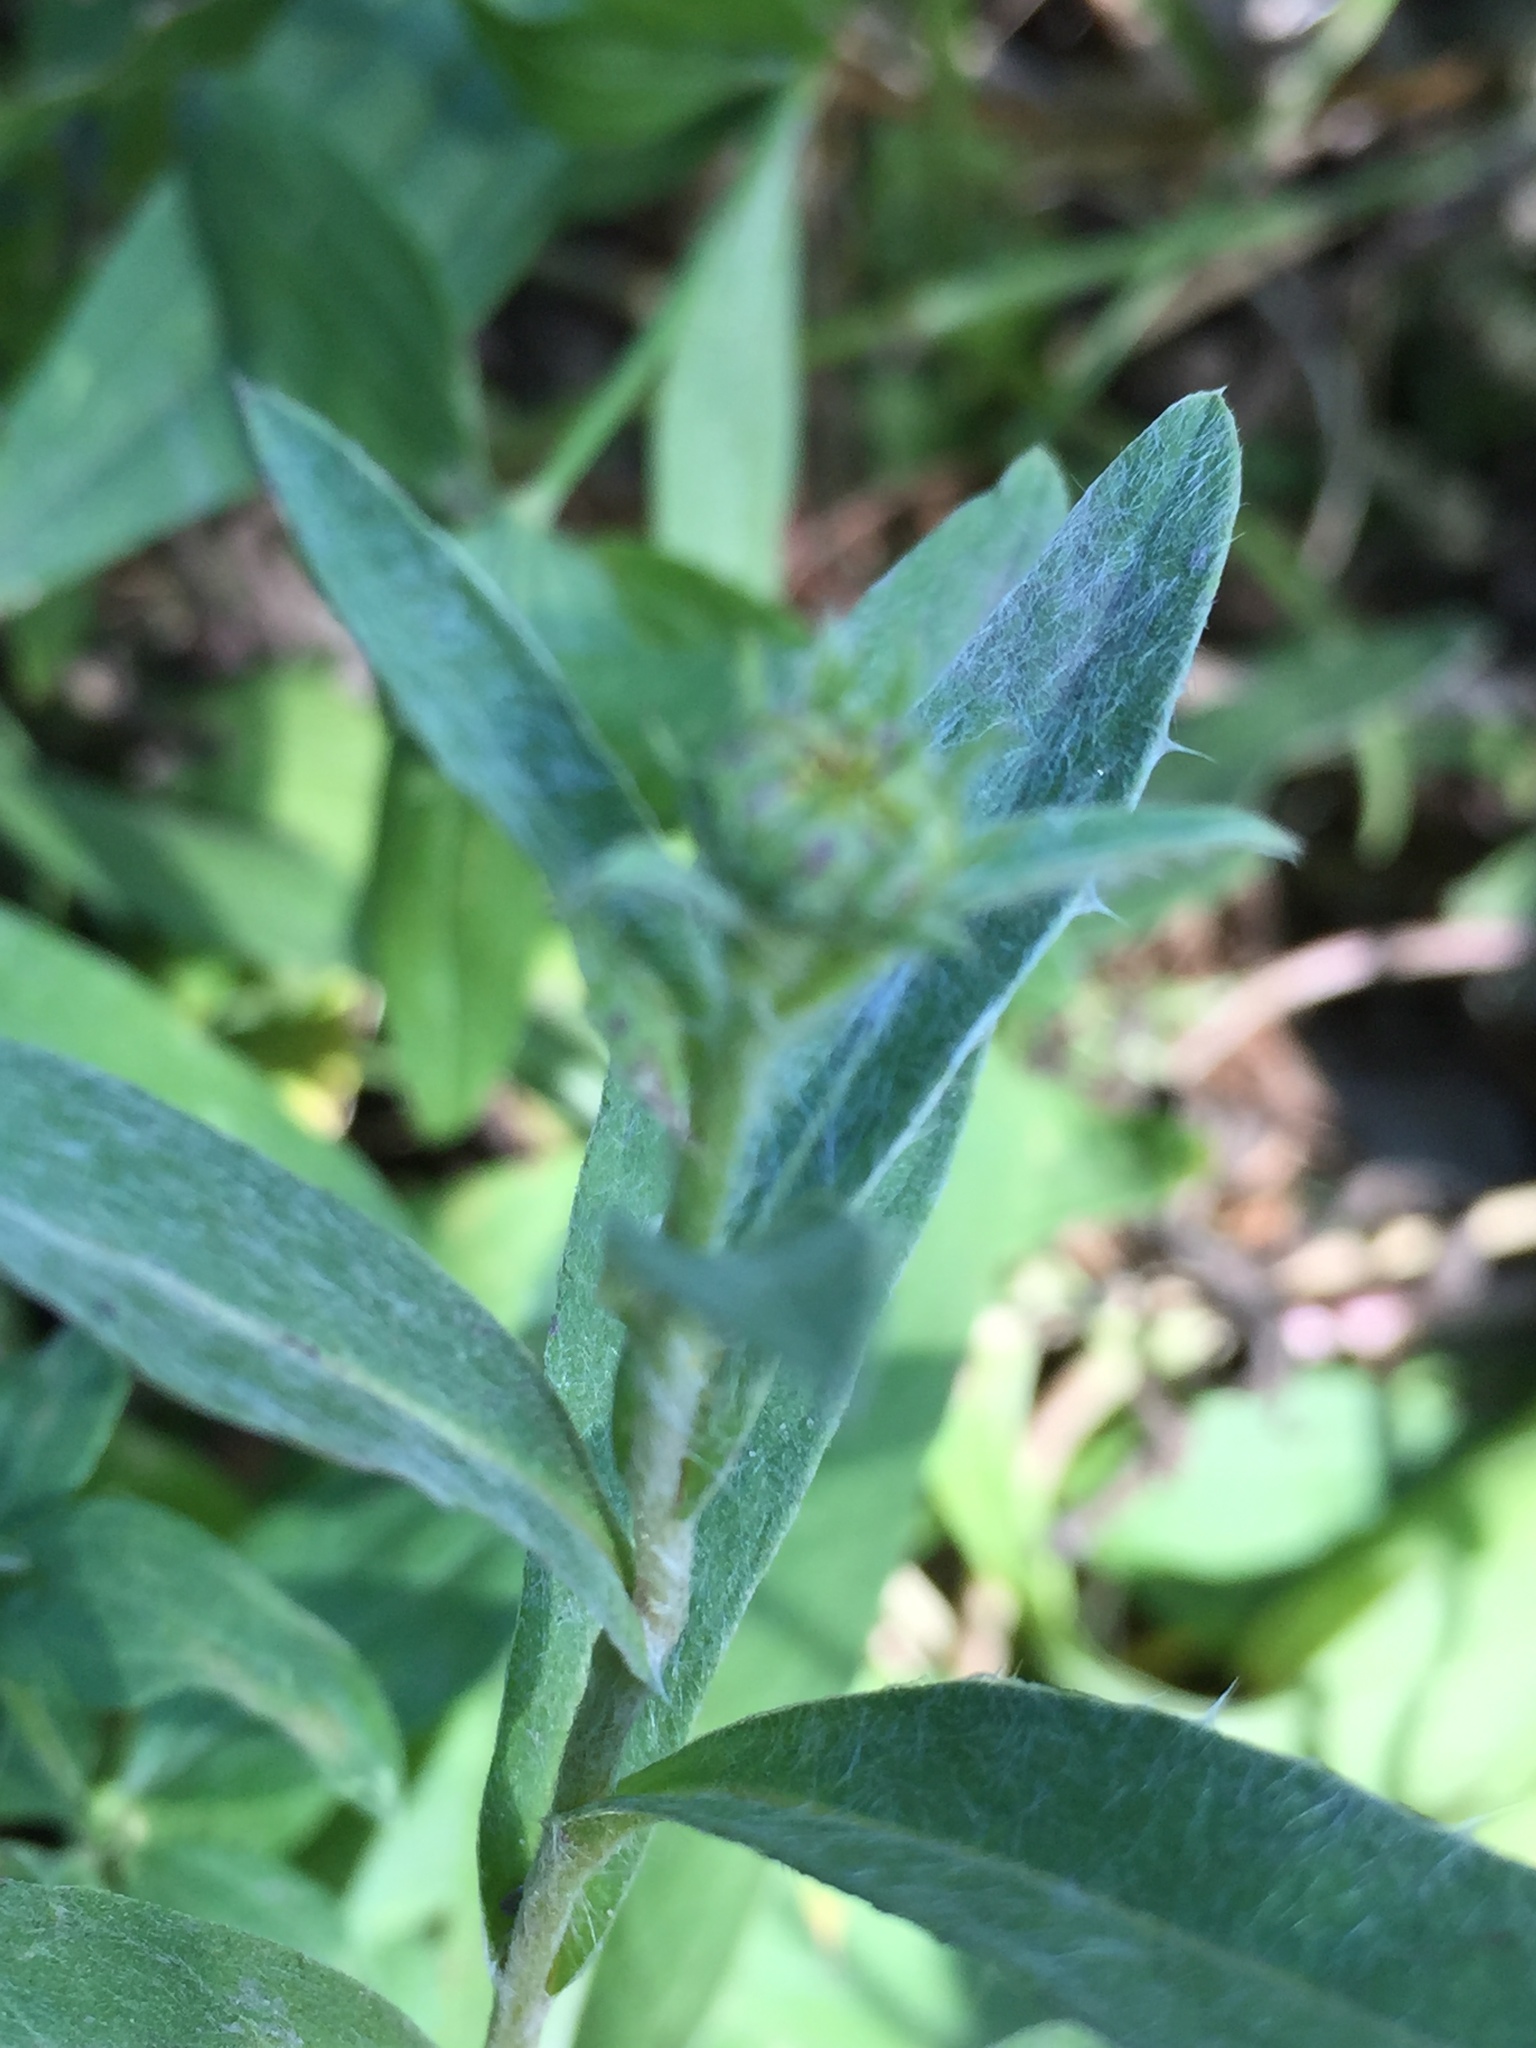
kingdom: Plantae
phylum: Tracheophyta
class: Magnoliopsida
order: Asterales
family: Asteraceae
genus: Centaurea
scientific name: Centaurea jacea
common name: Brown knapweed
